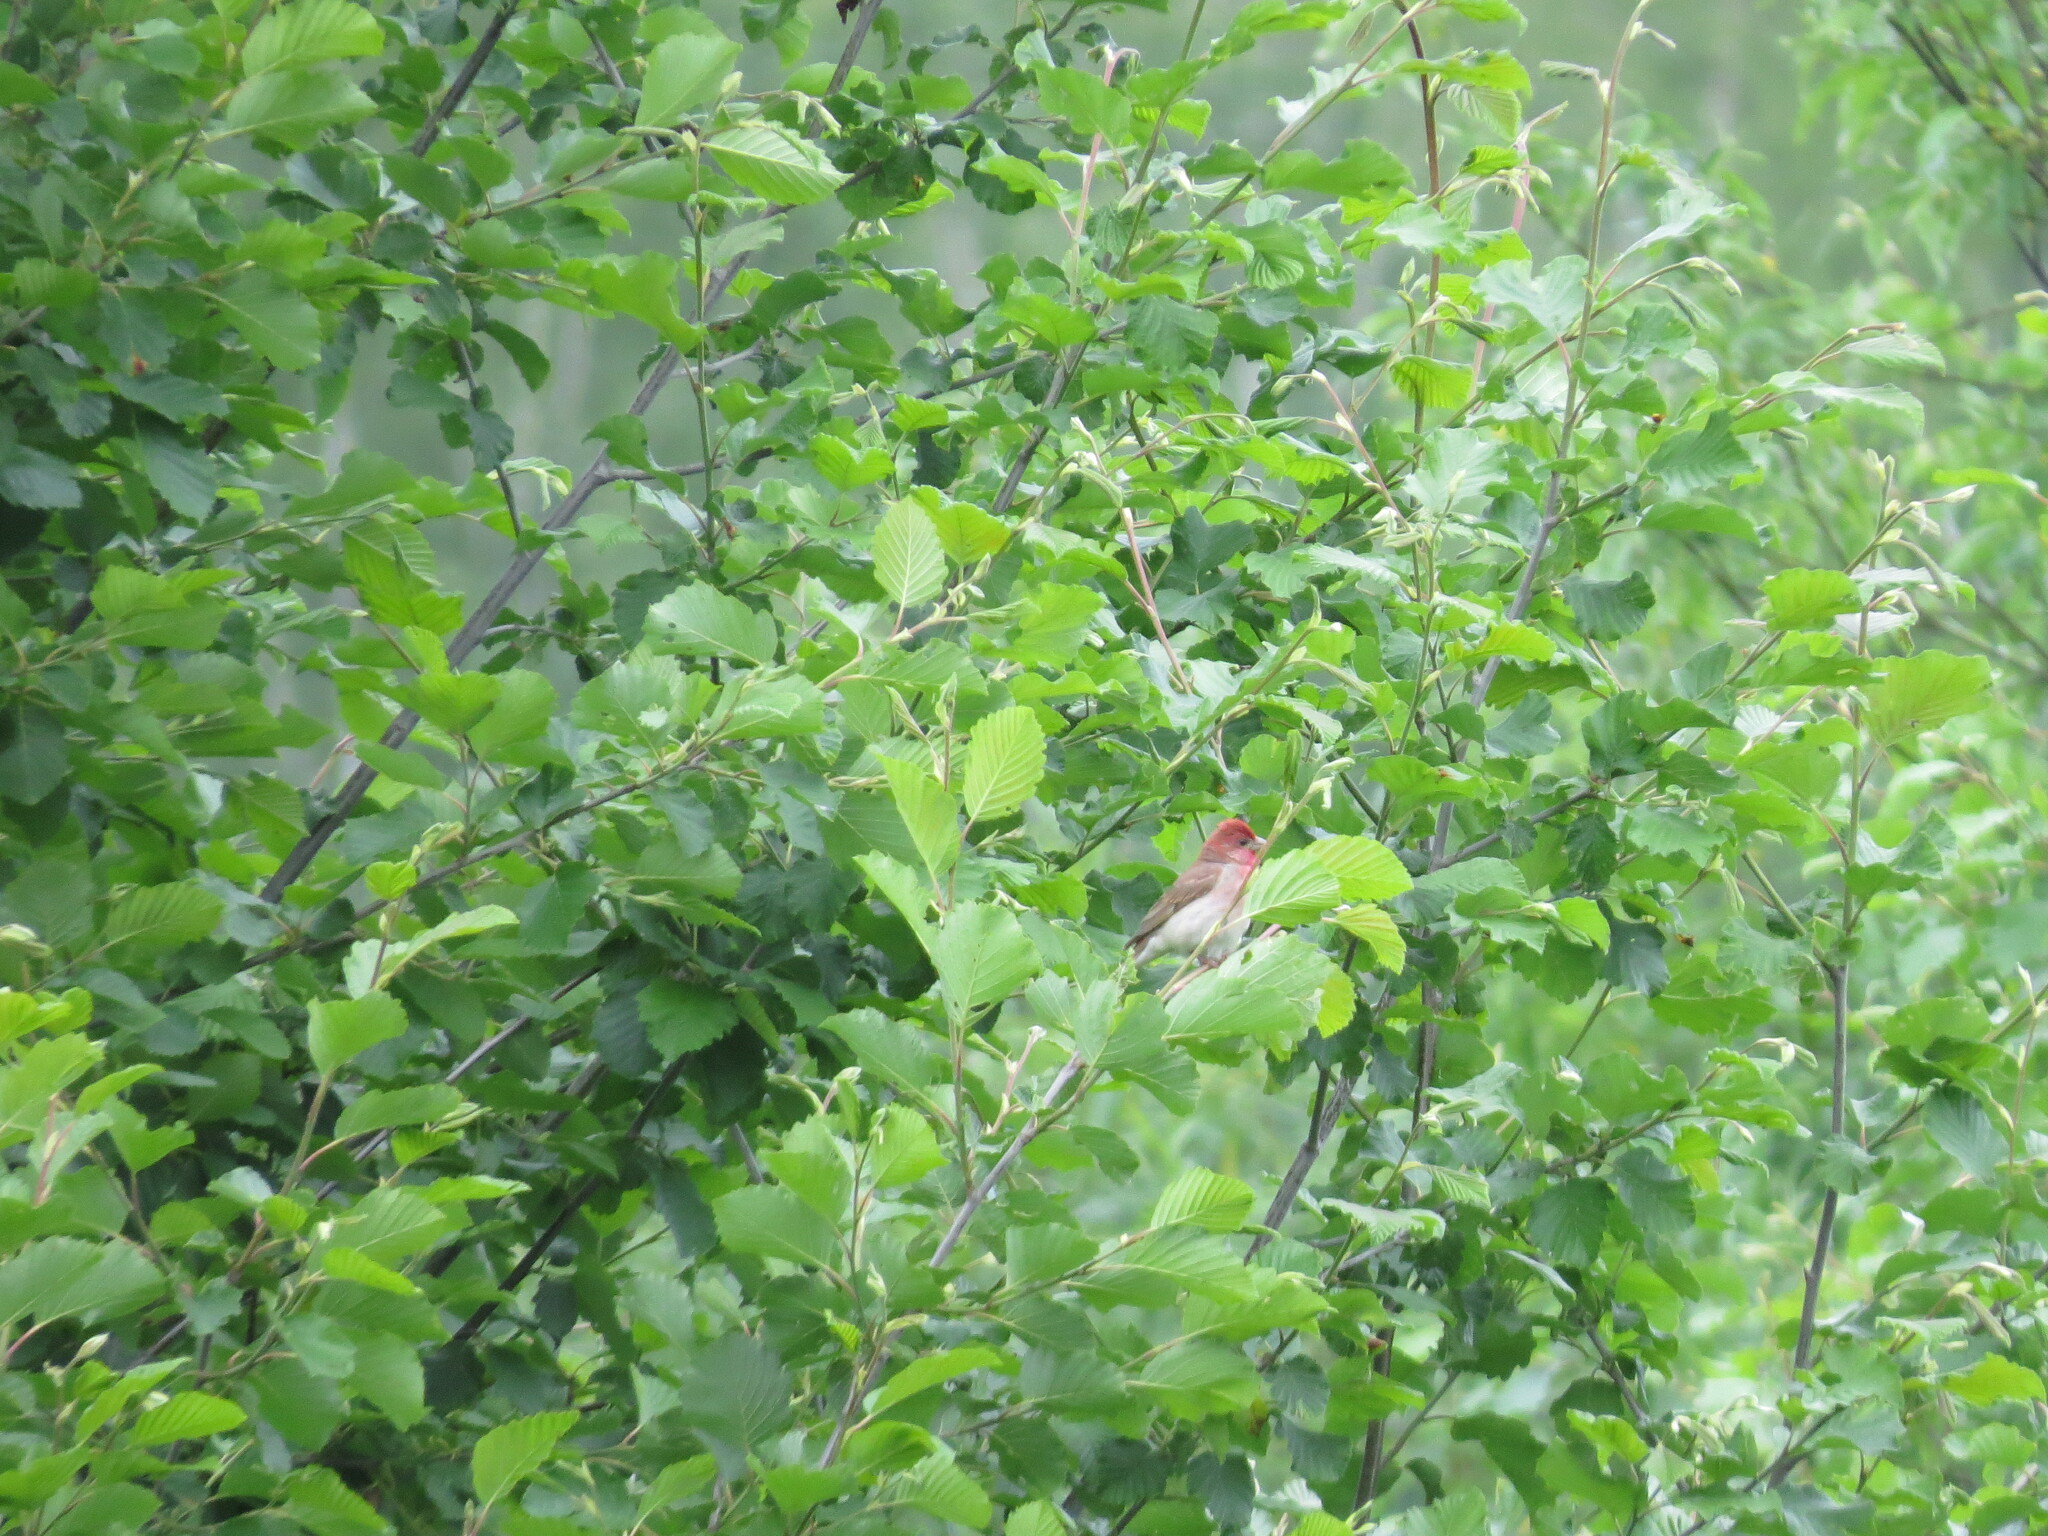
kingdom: Animalia
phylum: Chordata
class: Aves
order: Passeriformes
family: Fringillidae
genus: Carpodacus
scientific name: Carpodacus erythrinus
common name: Common rosefinch
